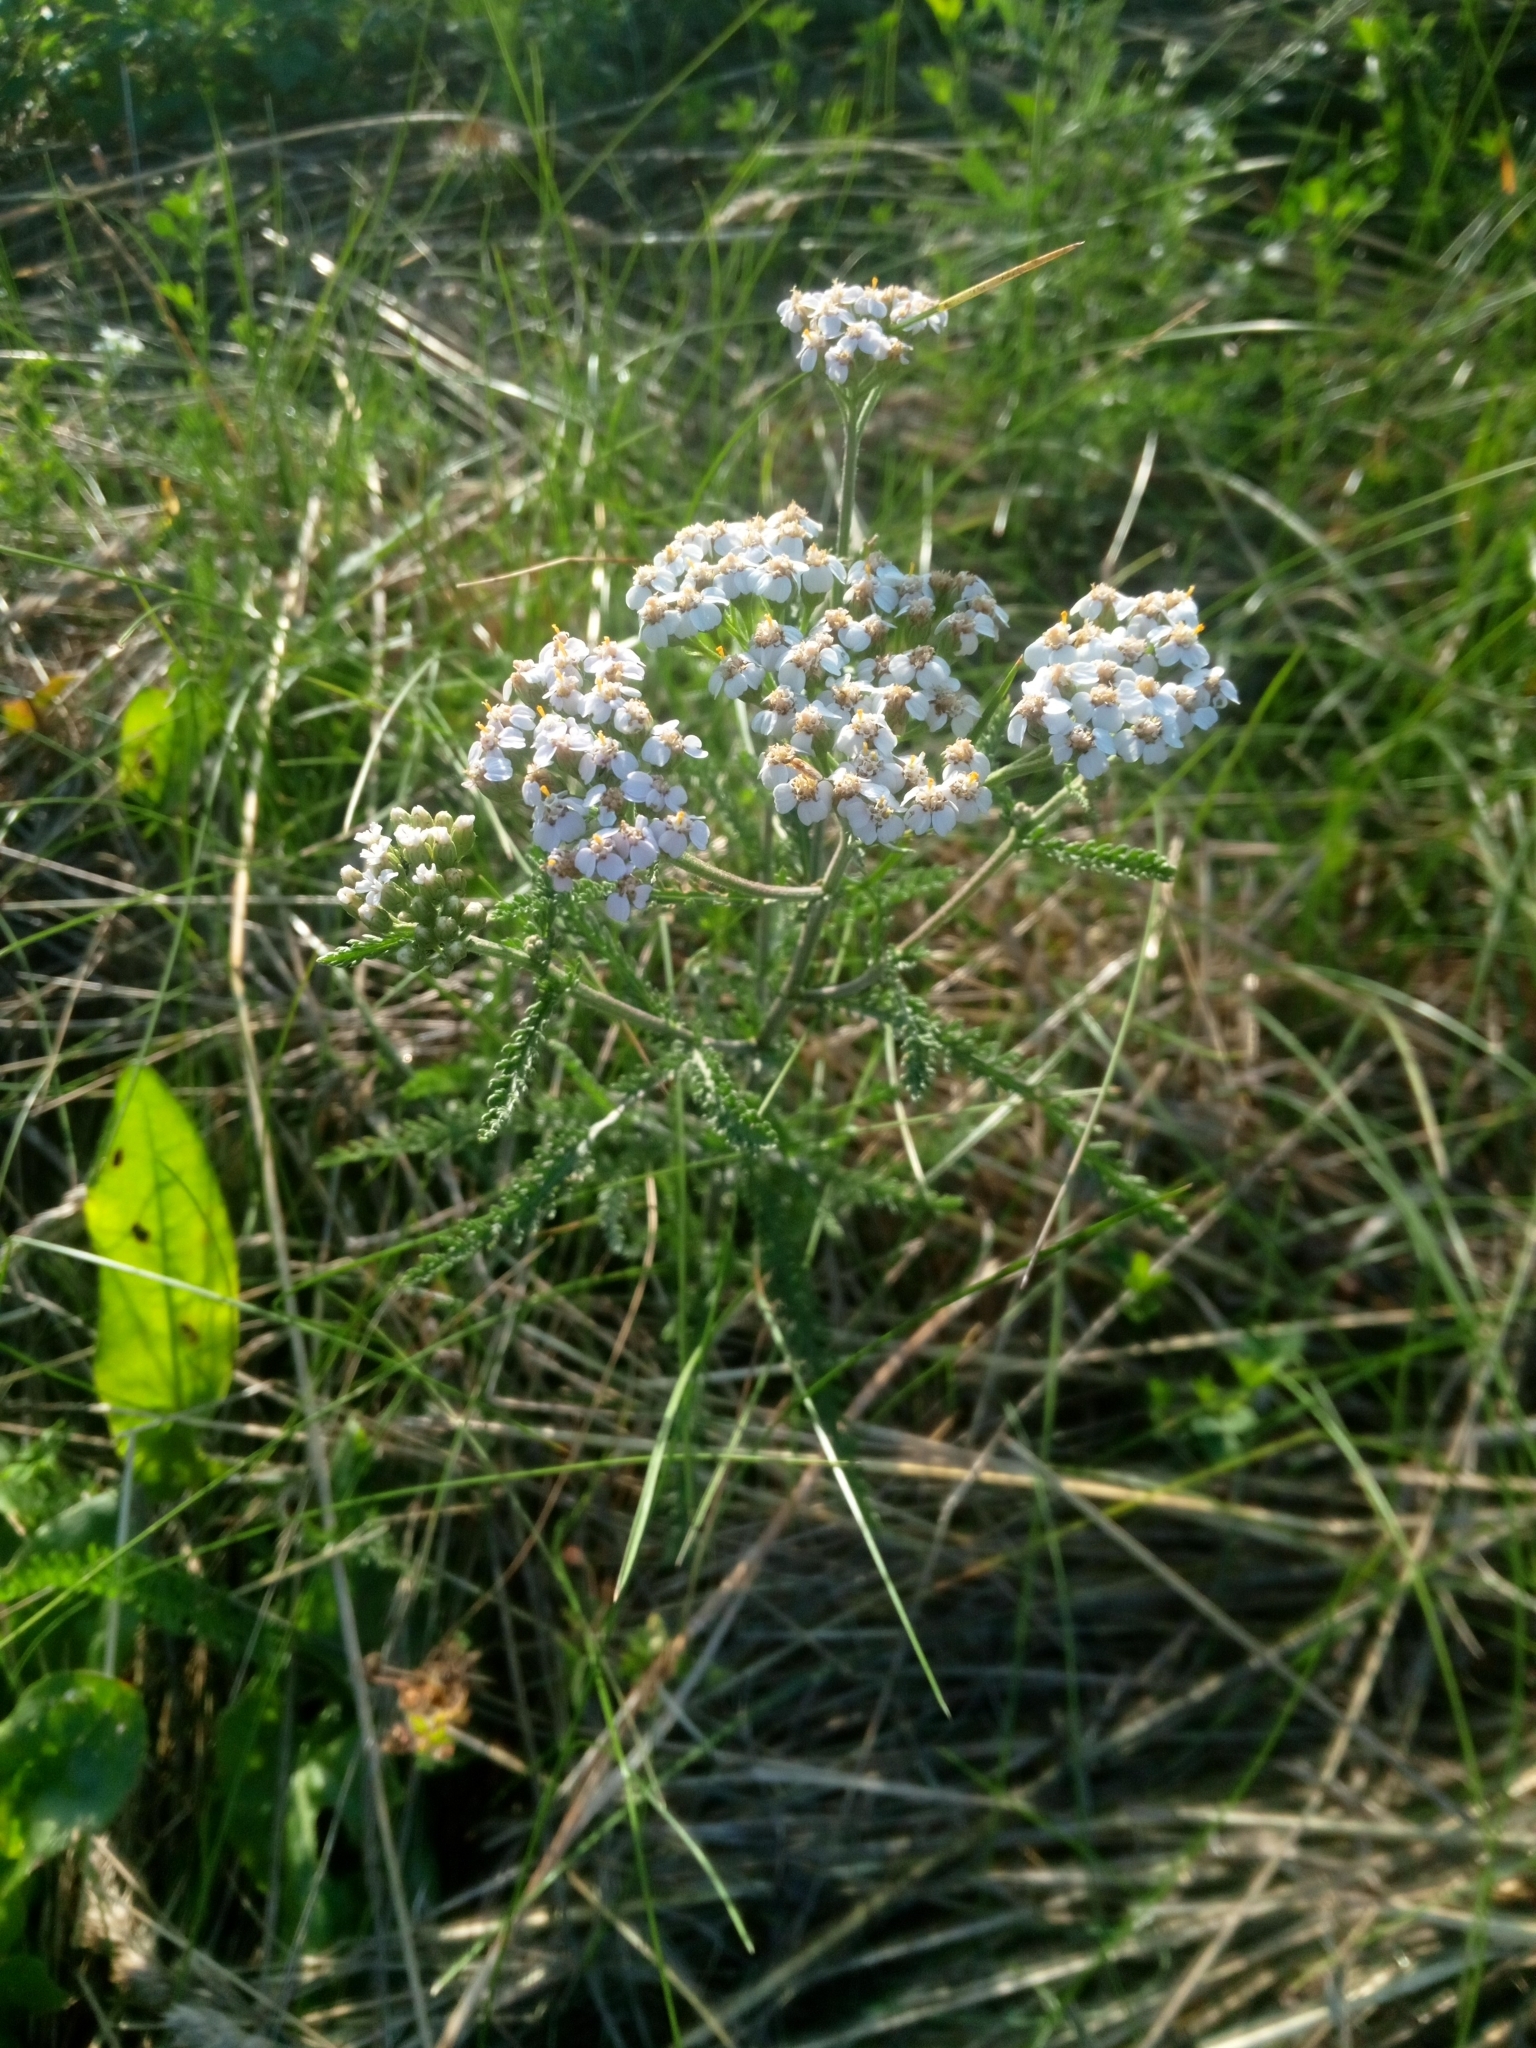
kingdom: Plantae
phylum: Tracheophyta
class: Magnoliopsida
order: Asterales
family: Asteraceae
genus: Achillea
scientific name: Achillea millefolium
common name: Yarrow
